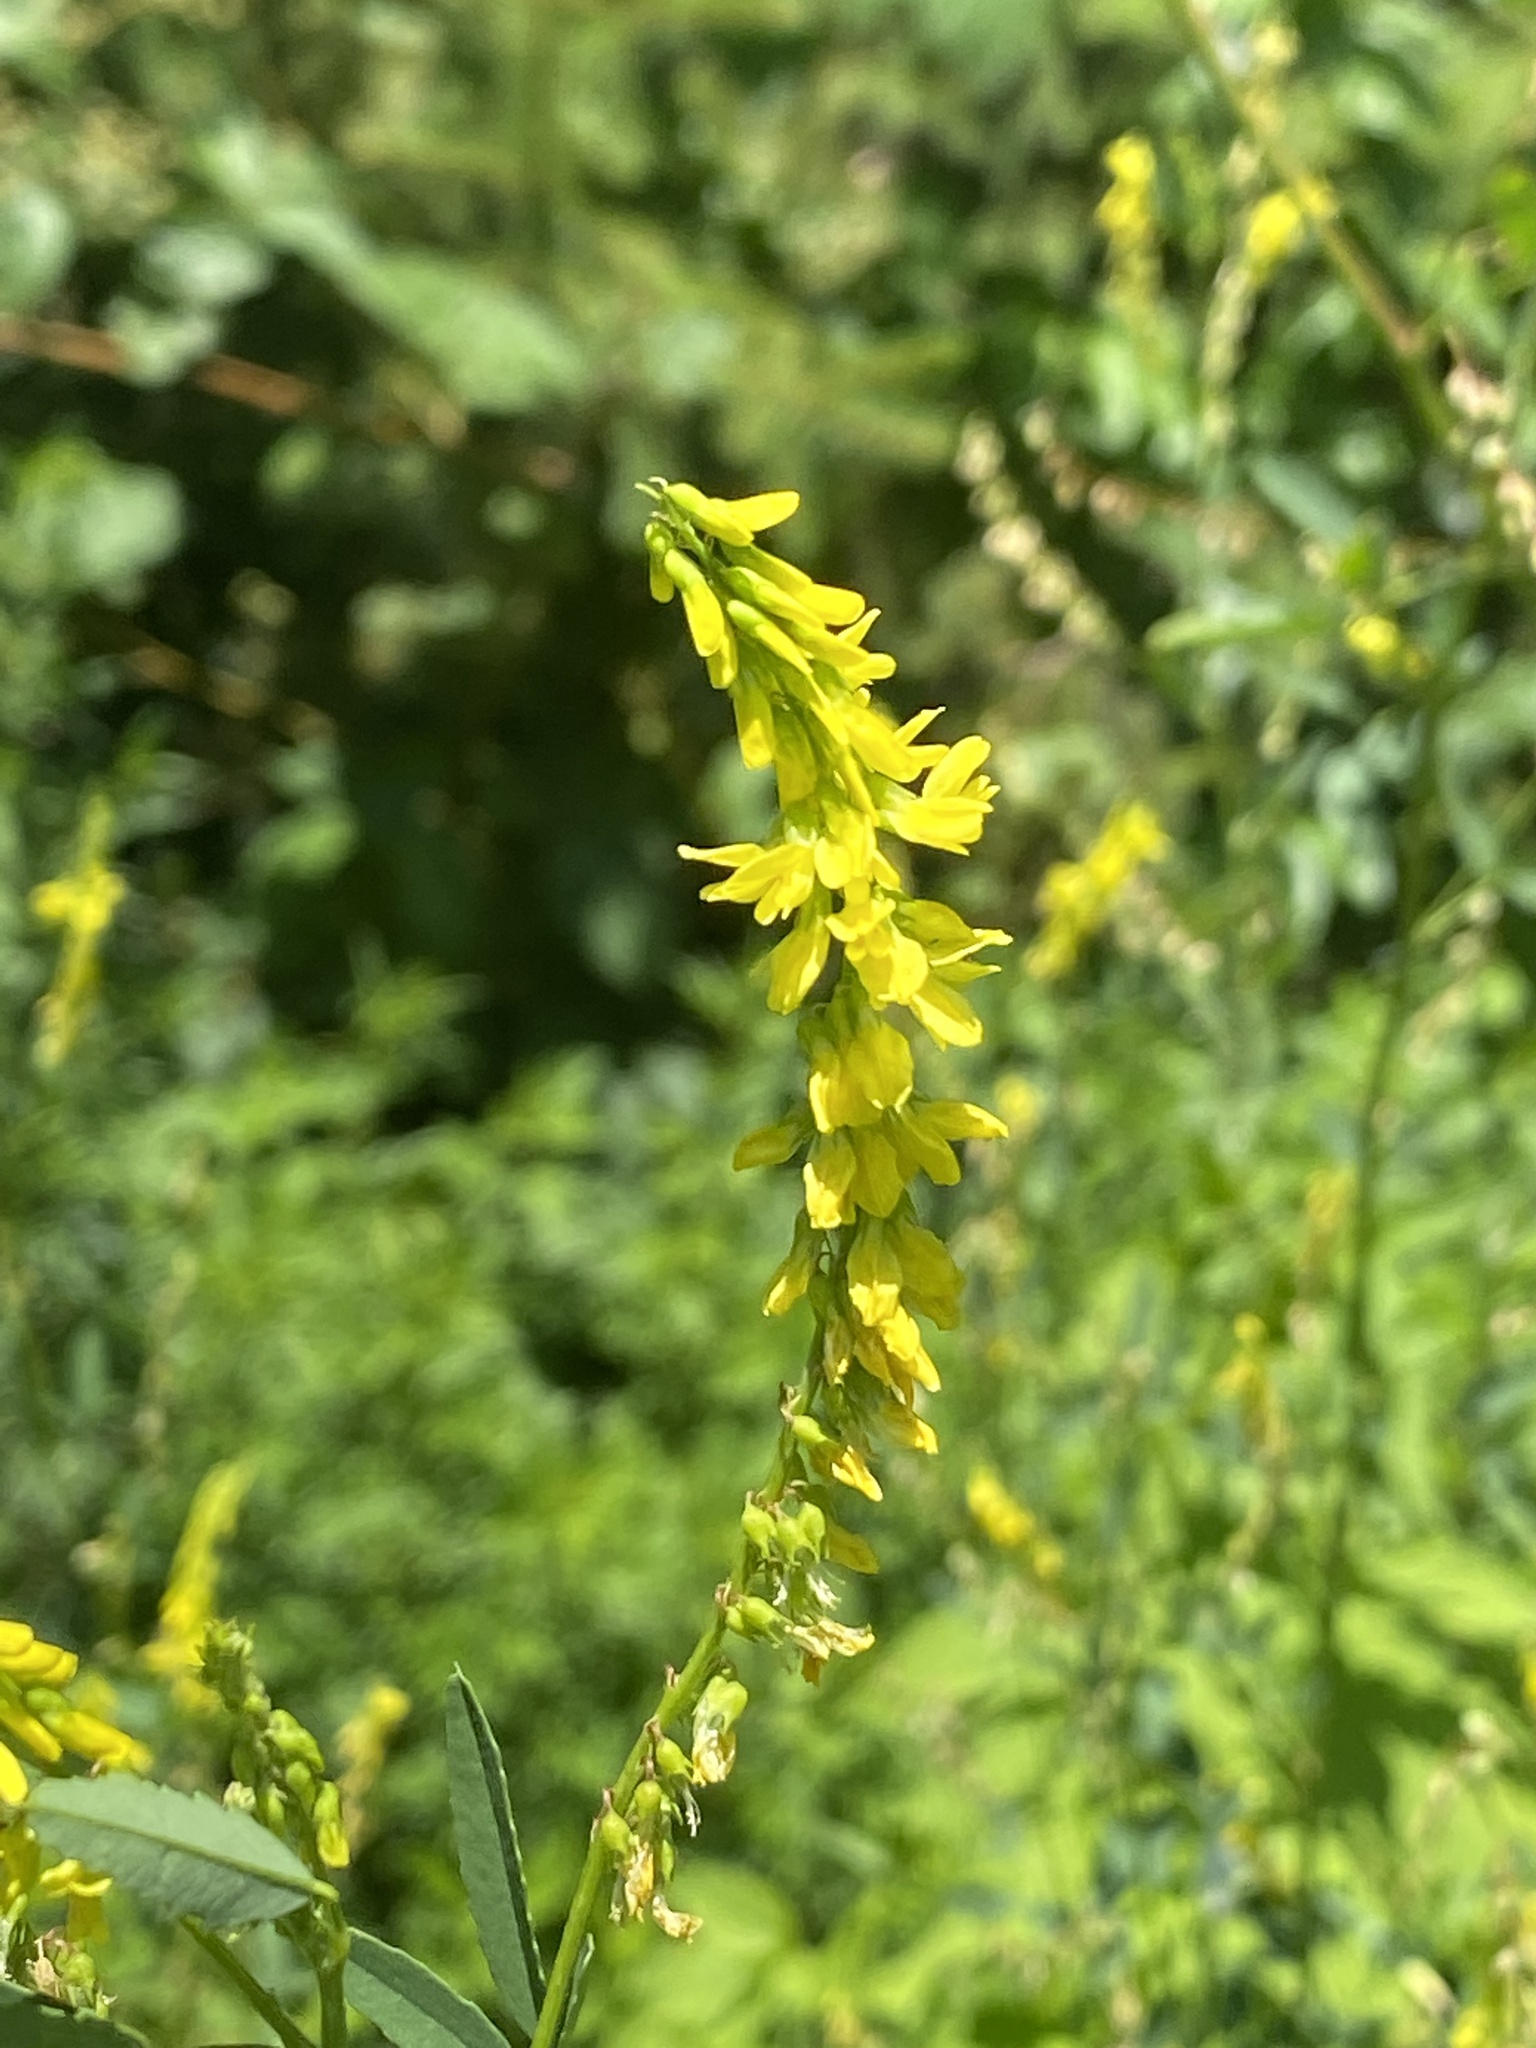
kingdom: Plantae
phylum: Tracheophyta
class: Magnoliopsida
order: Fabales
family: Fabaceae
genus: Melilotus
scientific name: Melilotus officinalis
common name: Sweetclover
